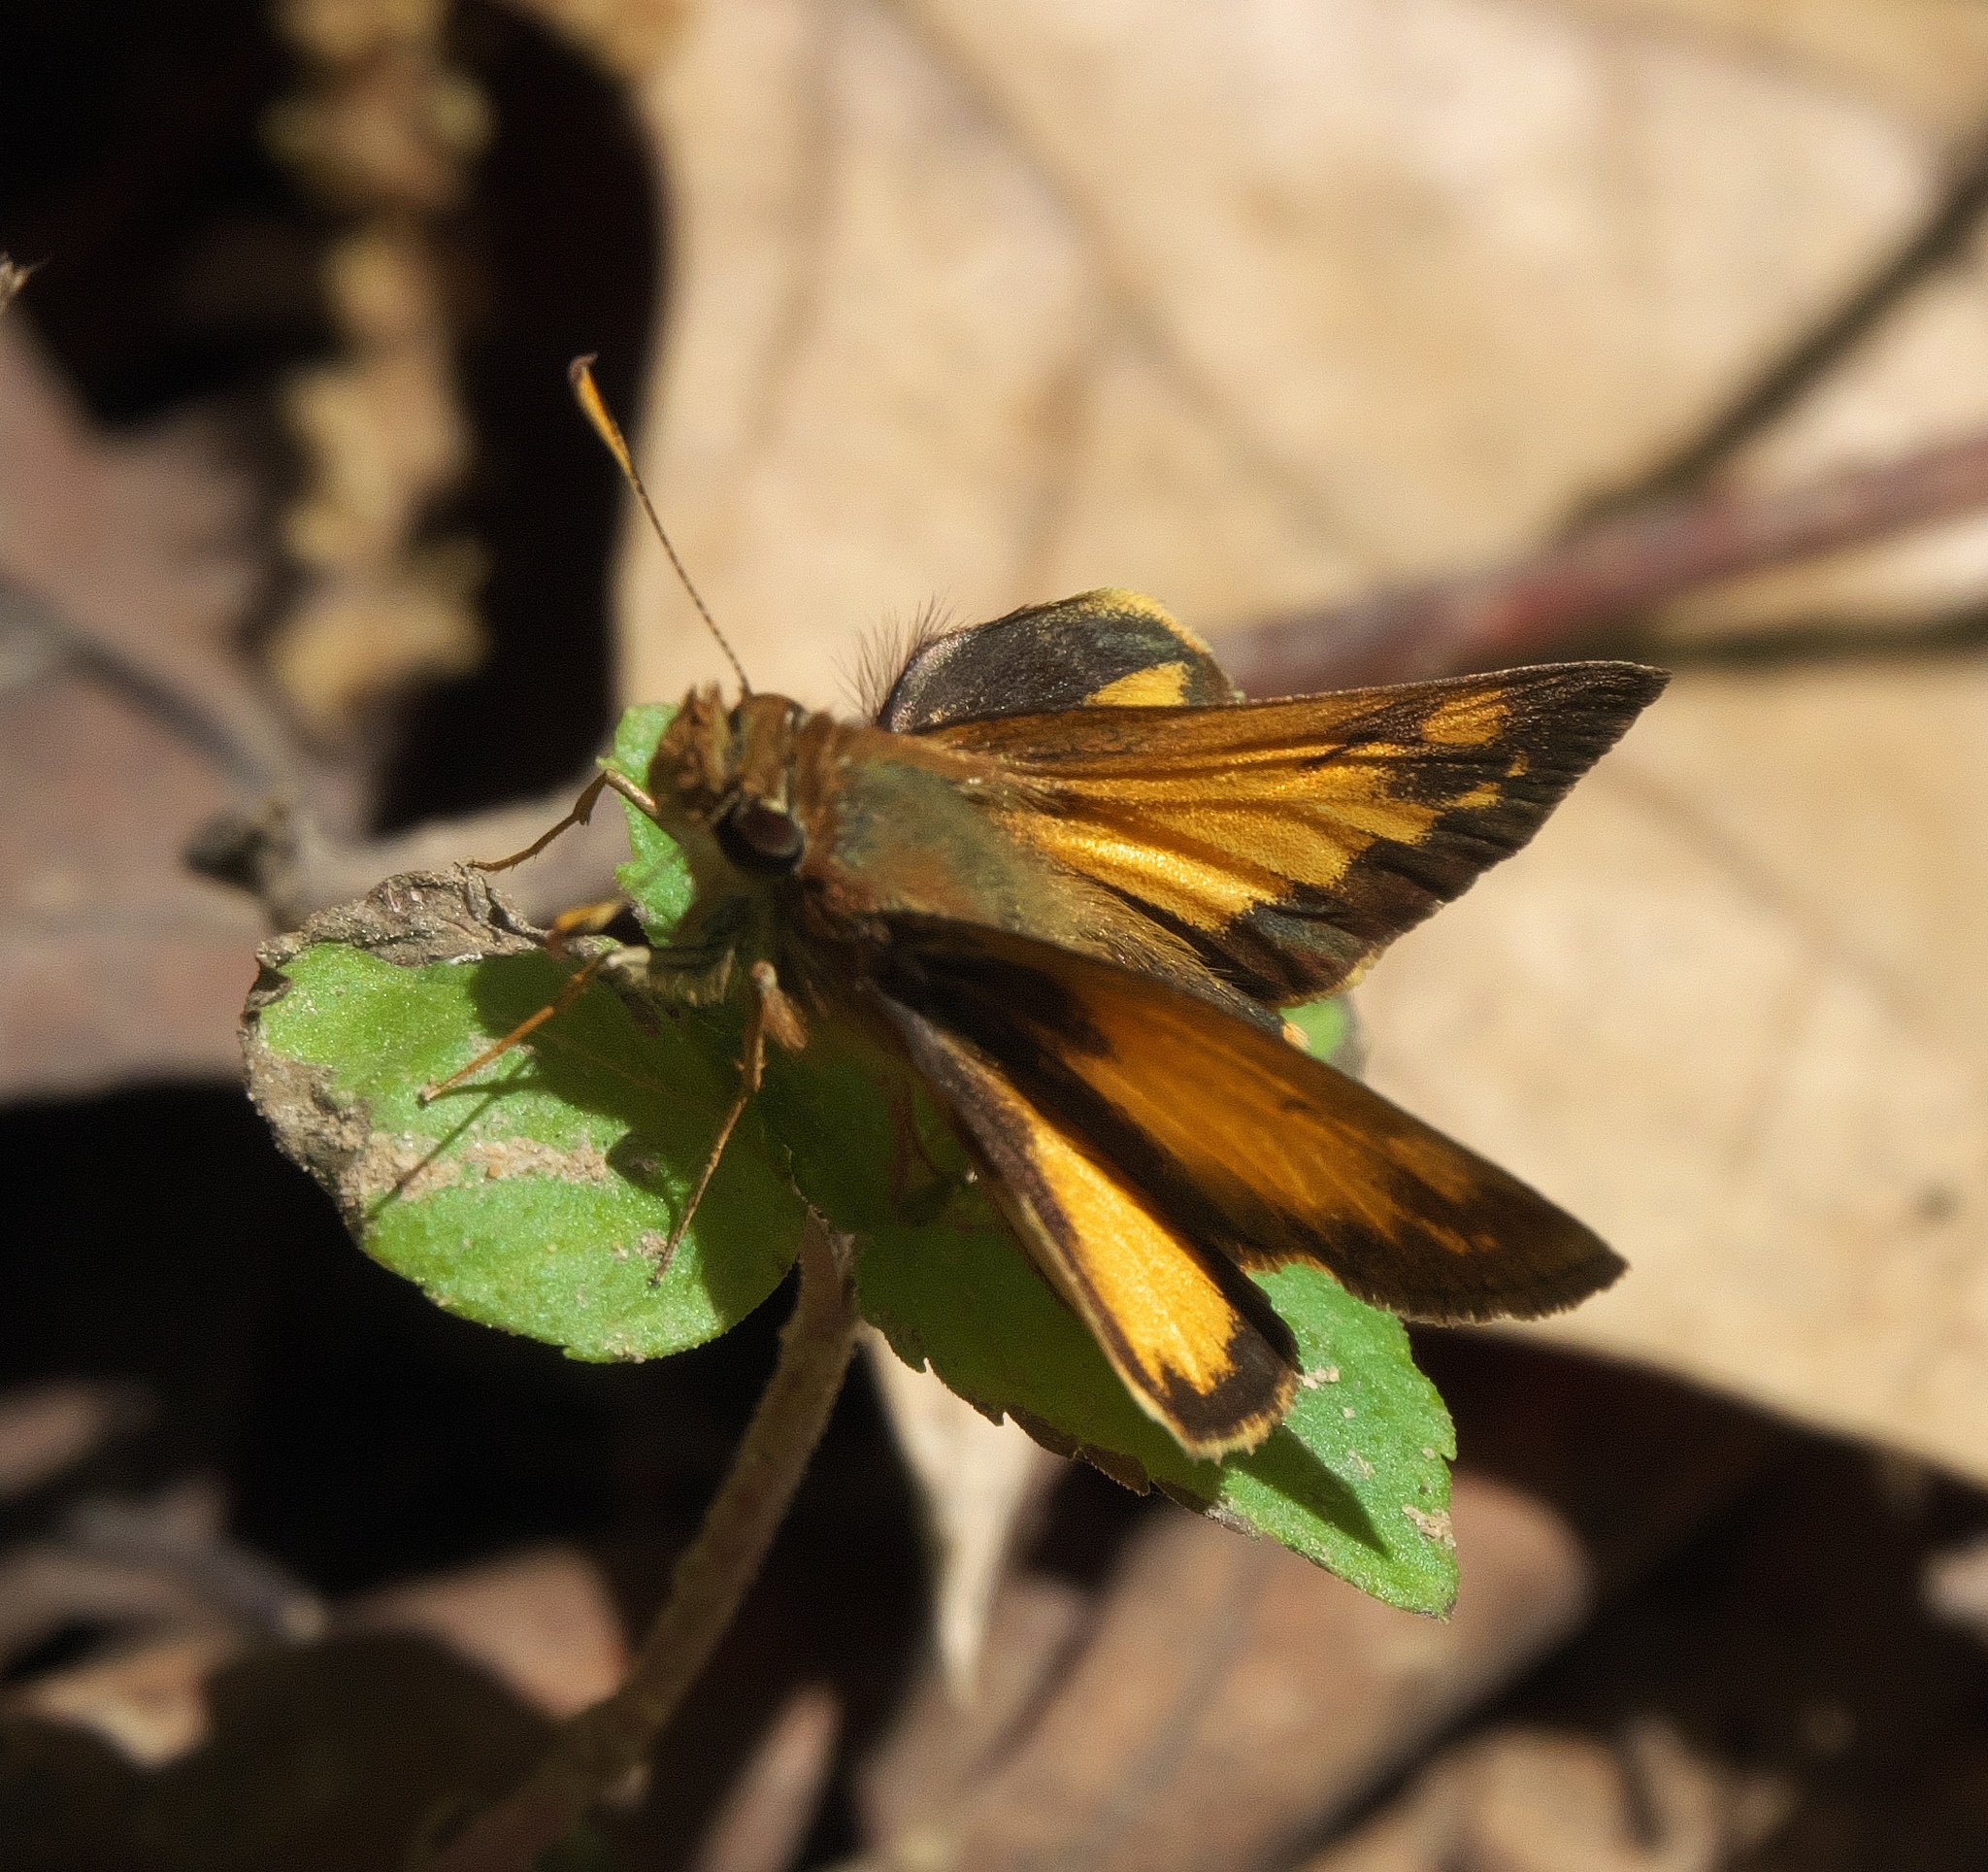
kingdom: Animalia
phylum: Arthropoda
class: Insecta
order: Lepidoptera
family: Hesperiidae
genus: Lon
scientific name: Lon zabulon
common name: Zabulon skipper
